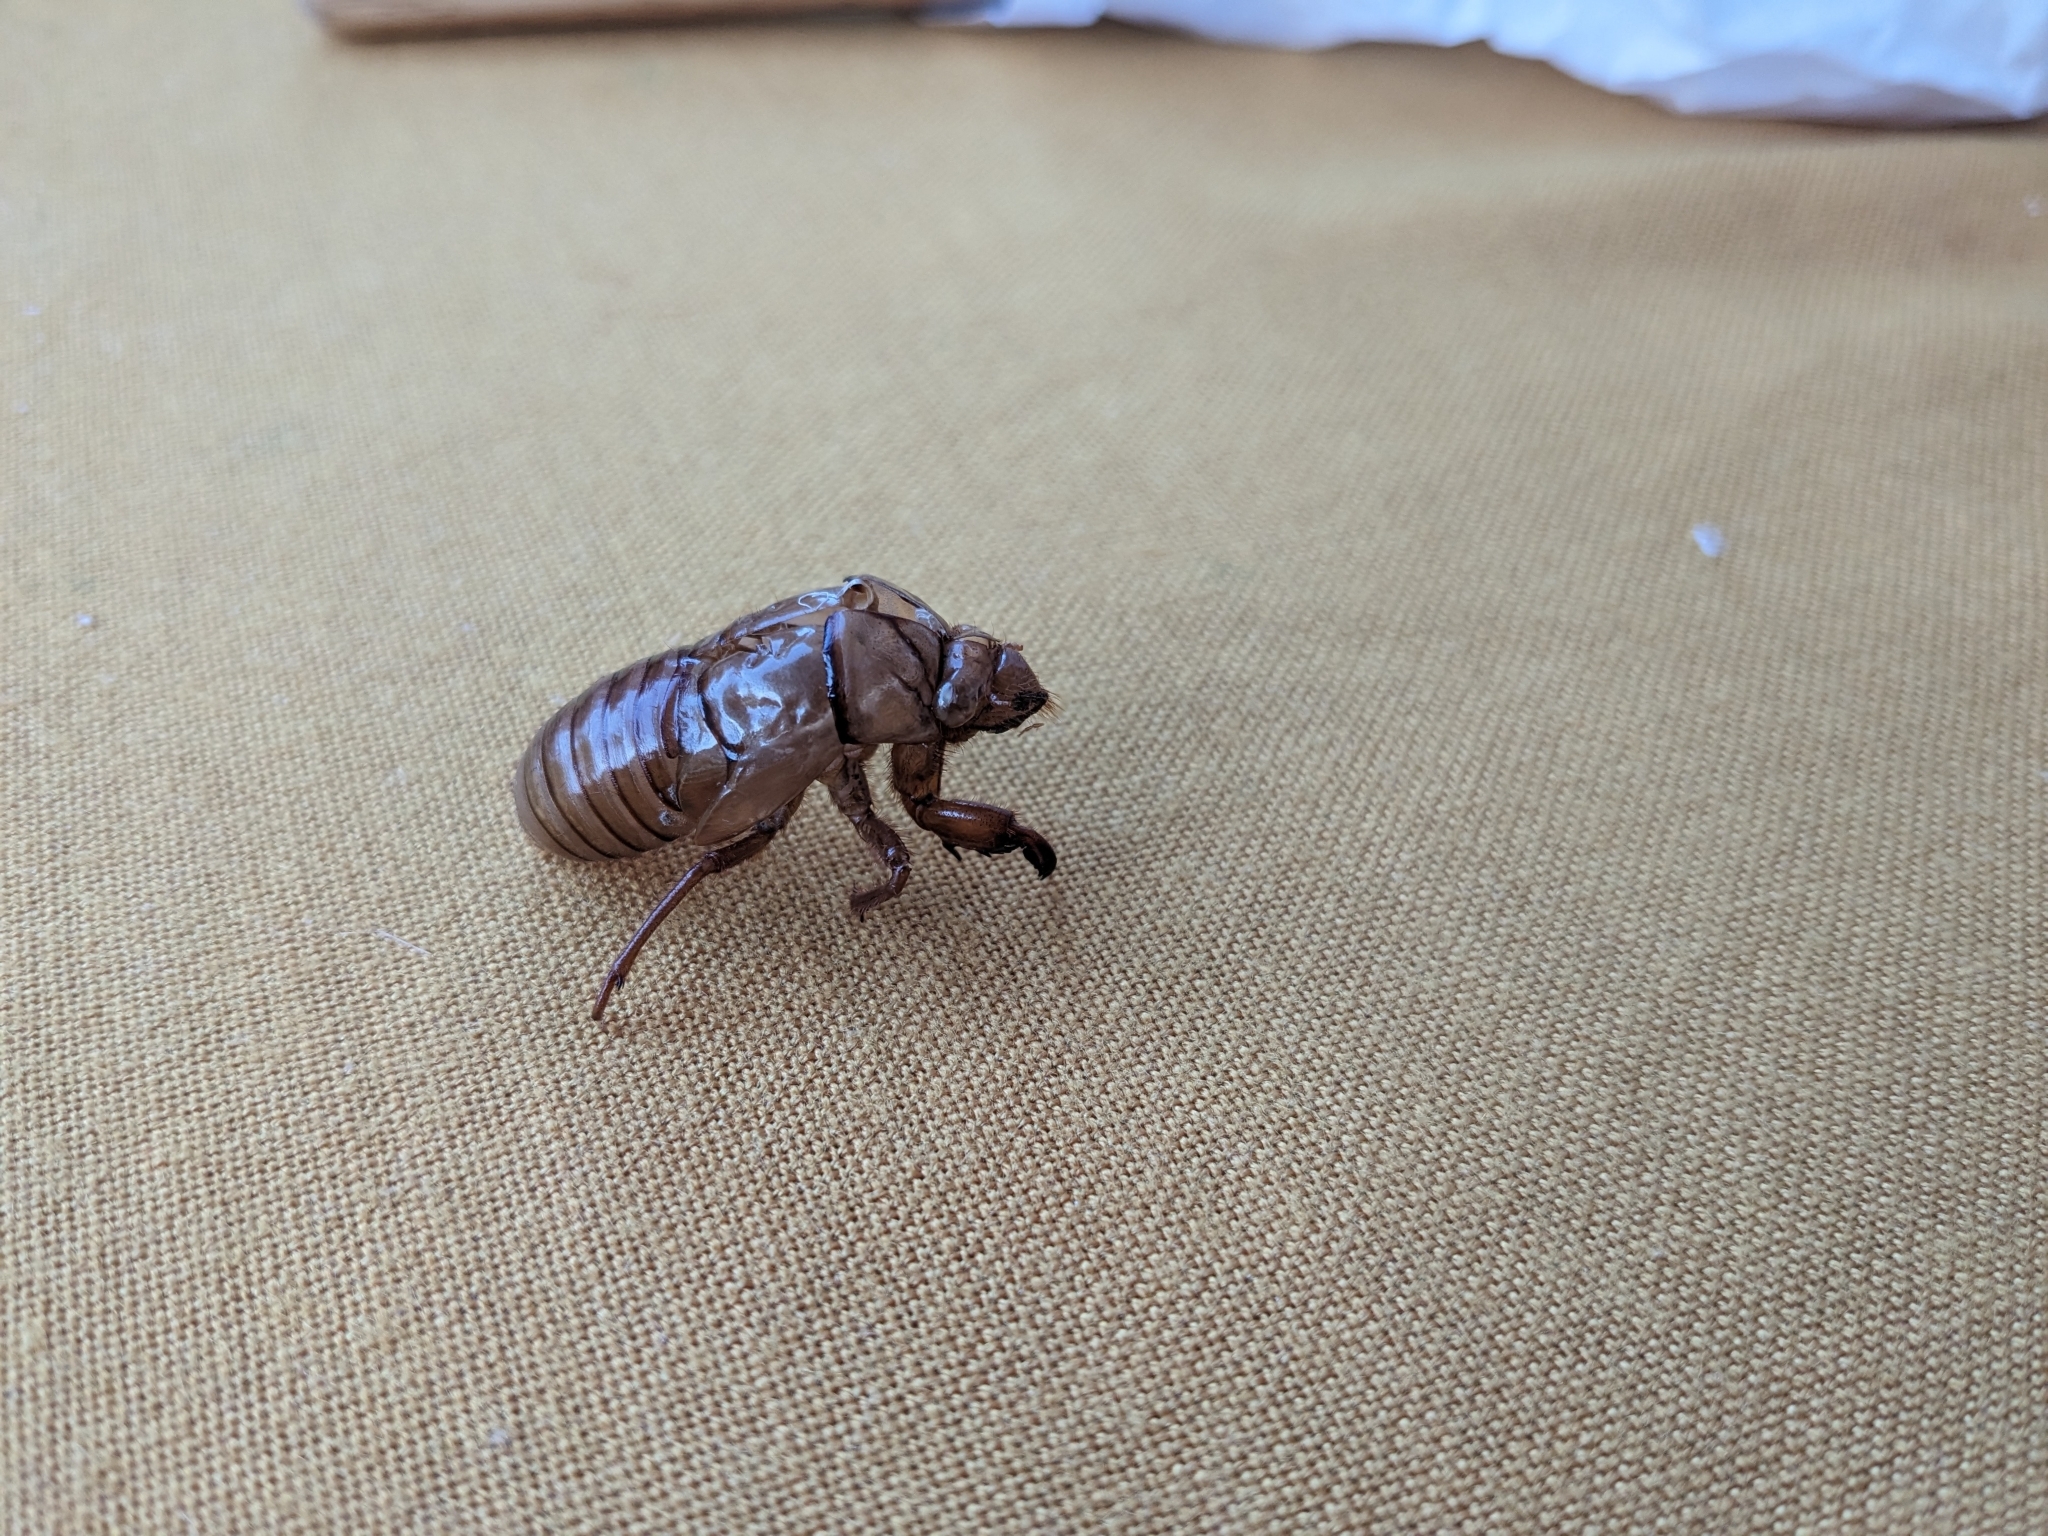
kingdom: Animalia
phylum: Arthropoda
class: Insecta
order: Hemiptera
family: Cicadidae
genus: Tibicina
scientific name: Tibicina haematodes
